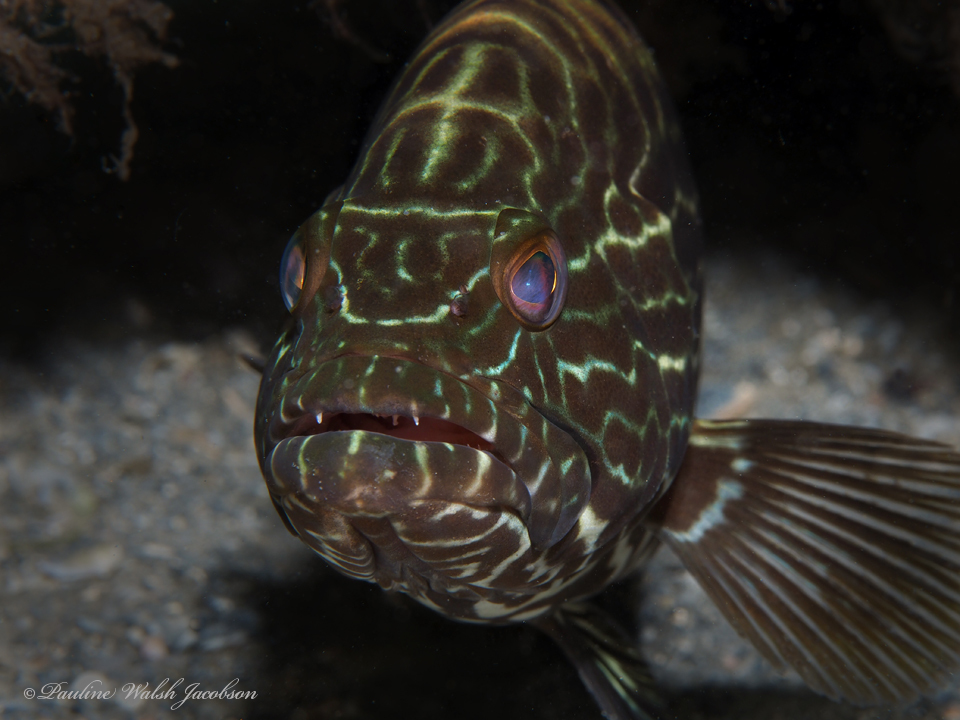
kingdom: Animalia
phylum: Chordata
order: Perciformes
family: Serranidae
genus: Mycteroperca
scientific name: Mycteroperca bonaci
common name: Black grouper
